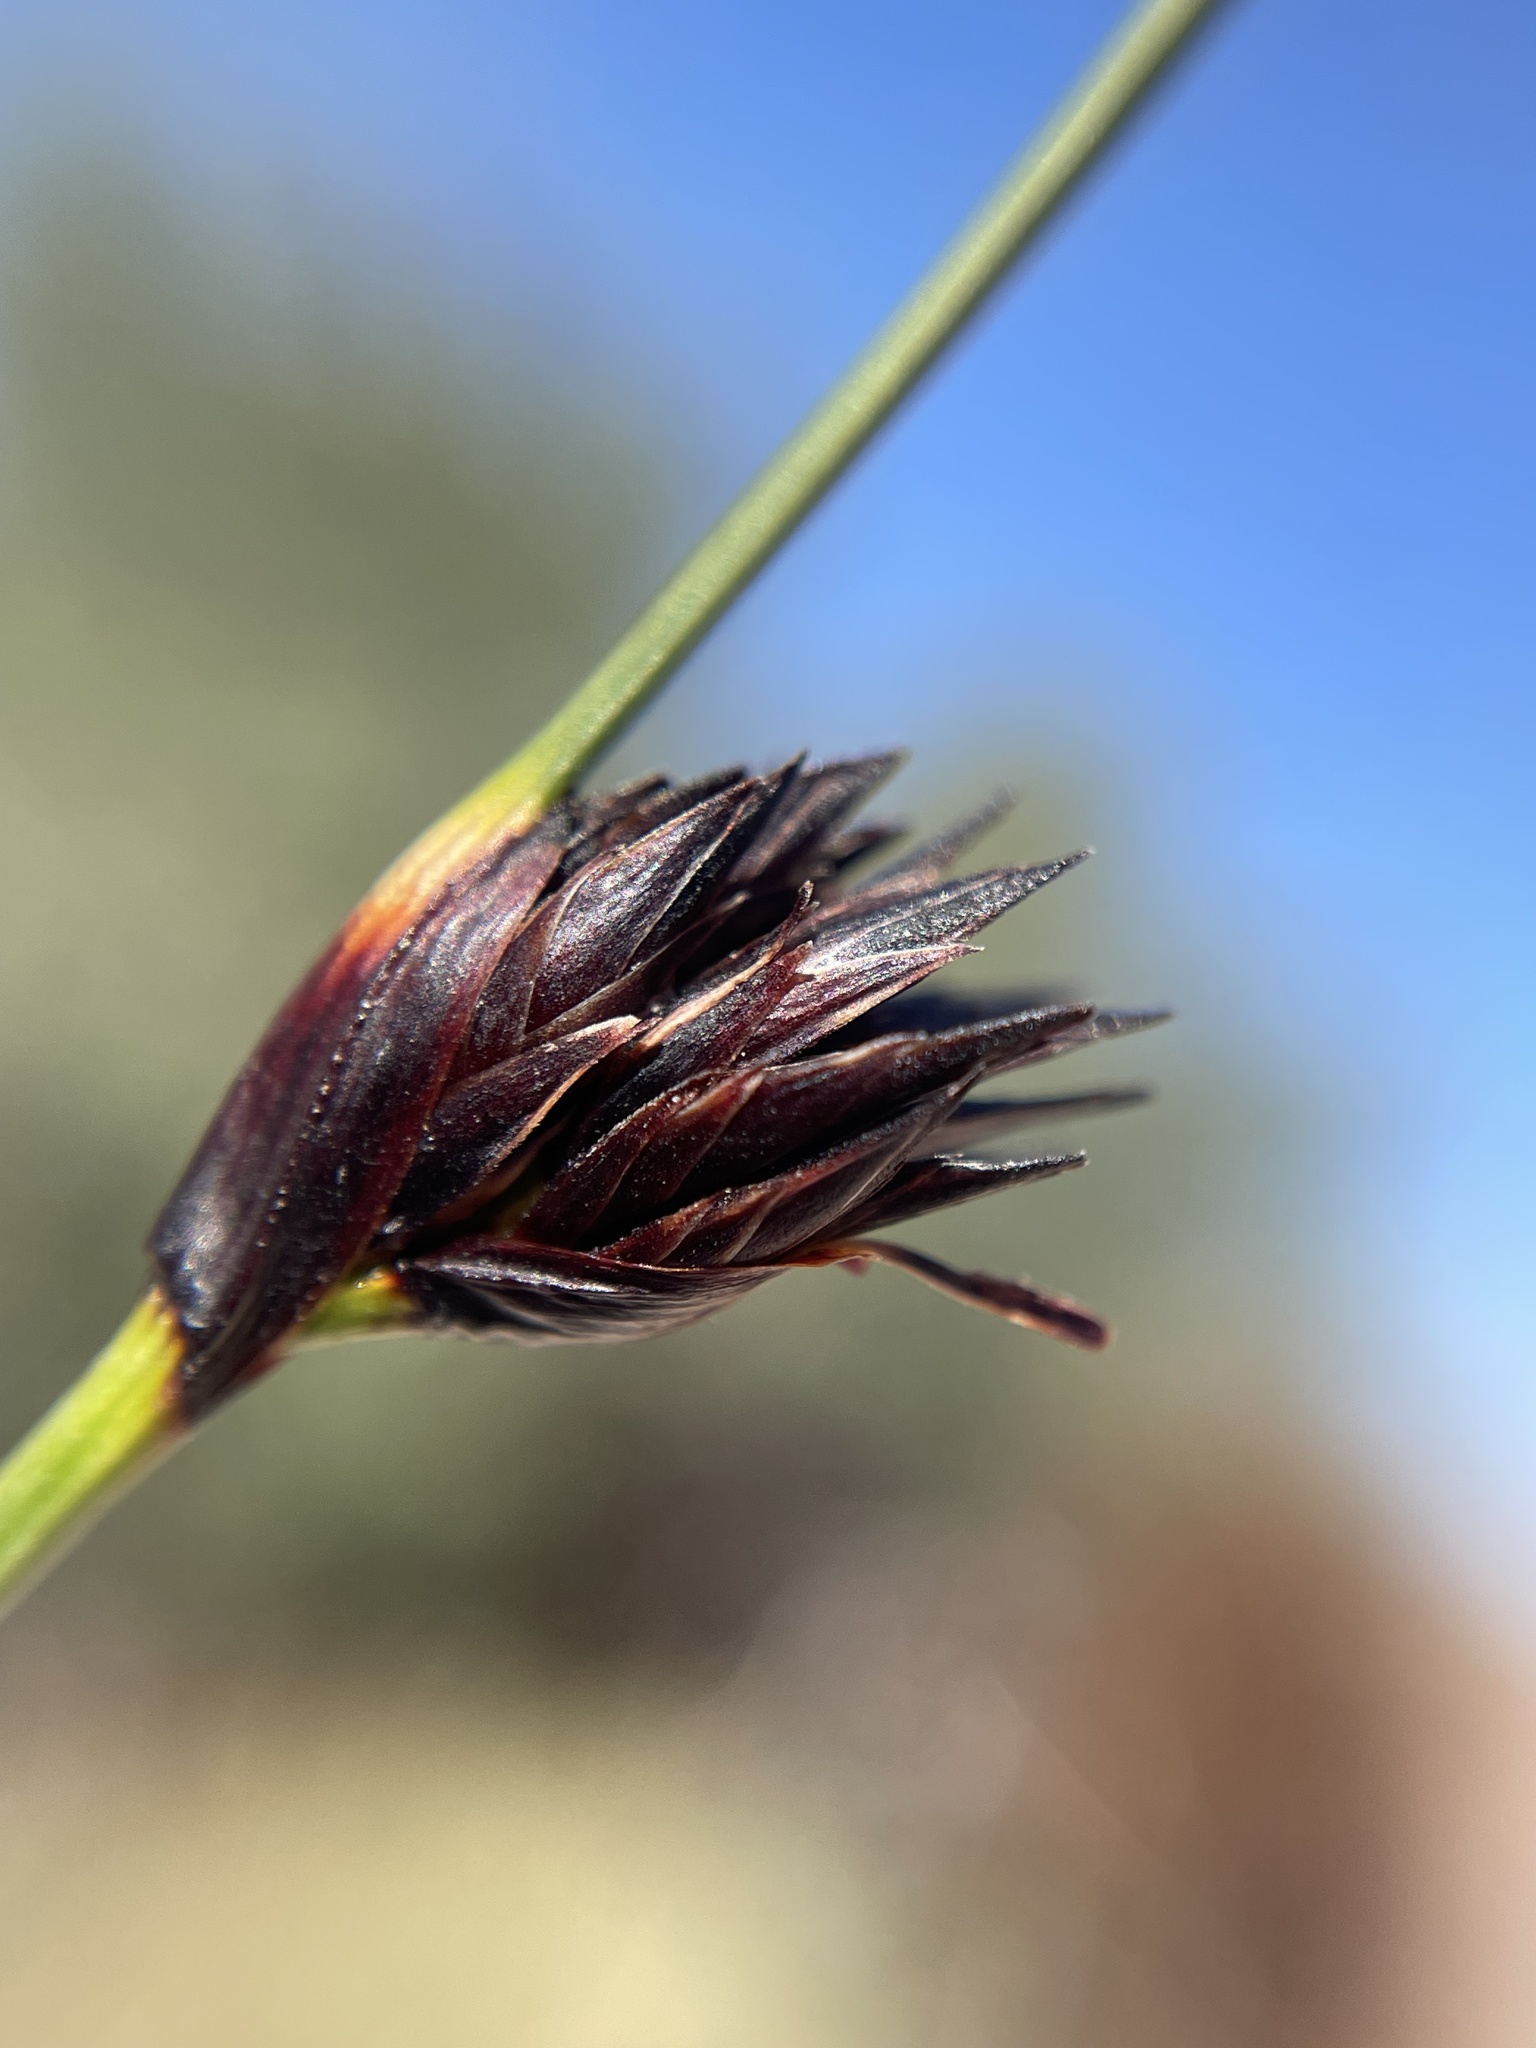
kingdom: Plantae
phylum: Tracheophyta
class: Liliopsida
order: Poales
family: Cyperaceae
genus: Schoenus
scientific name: Schoenus nigricans
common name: Black bog-rush
